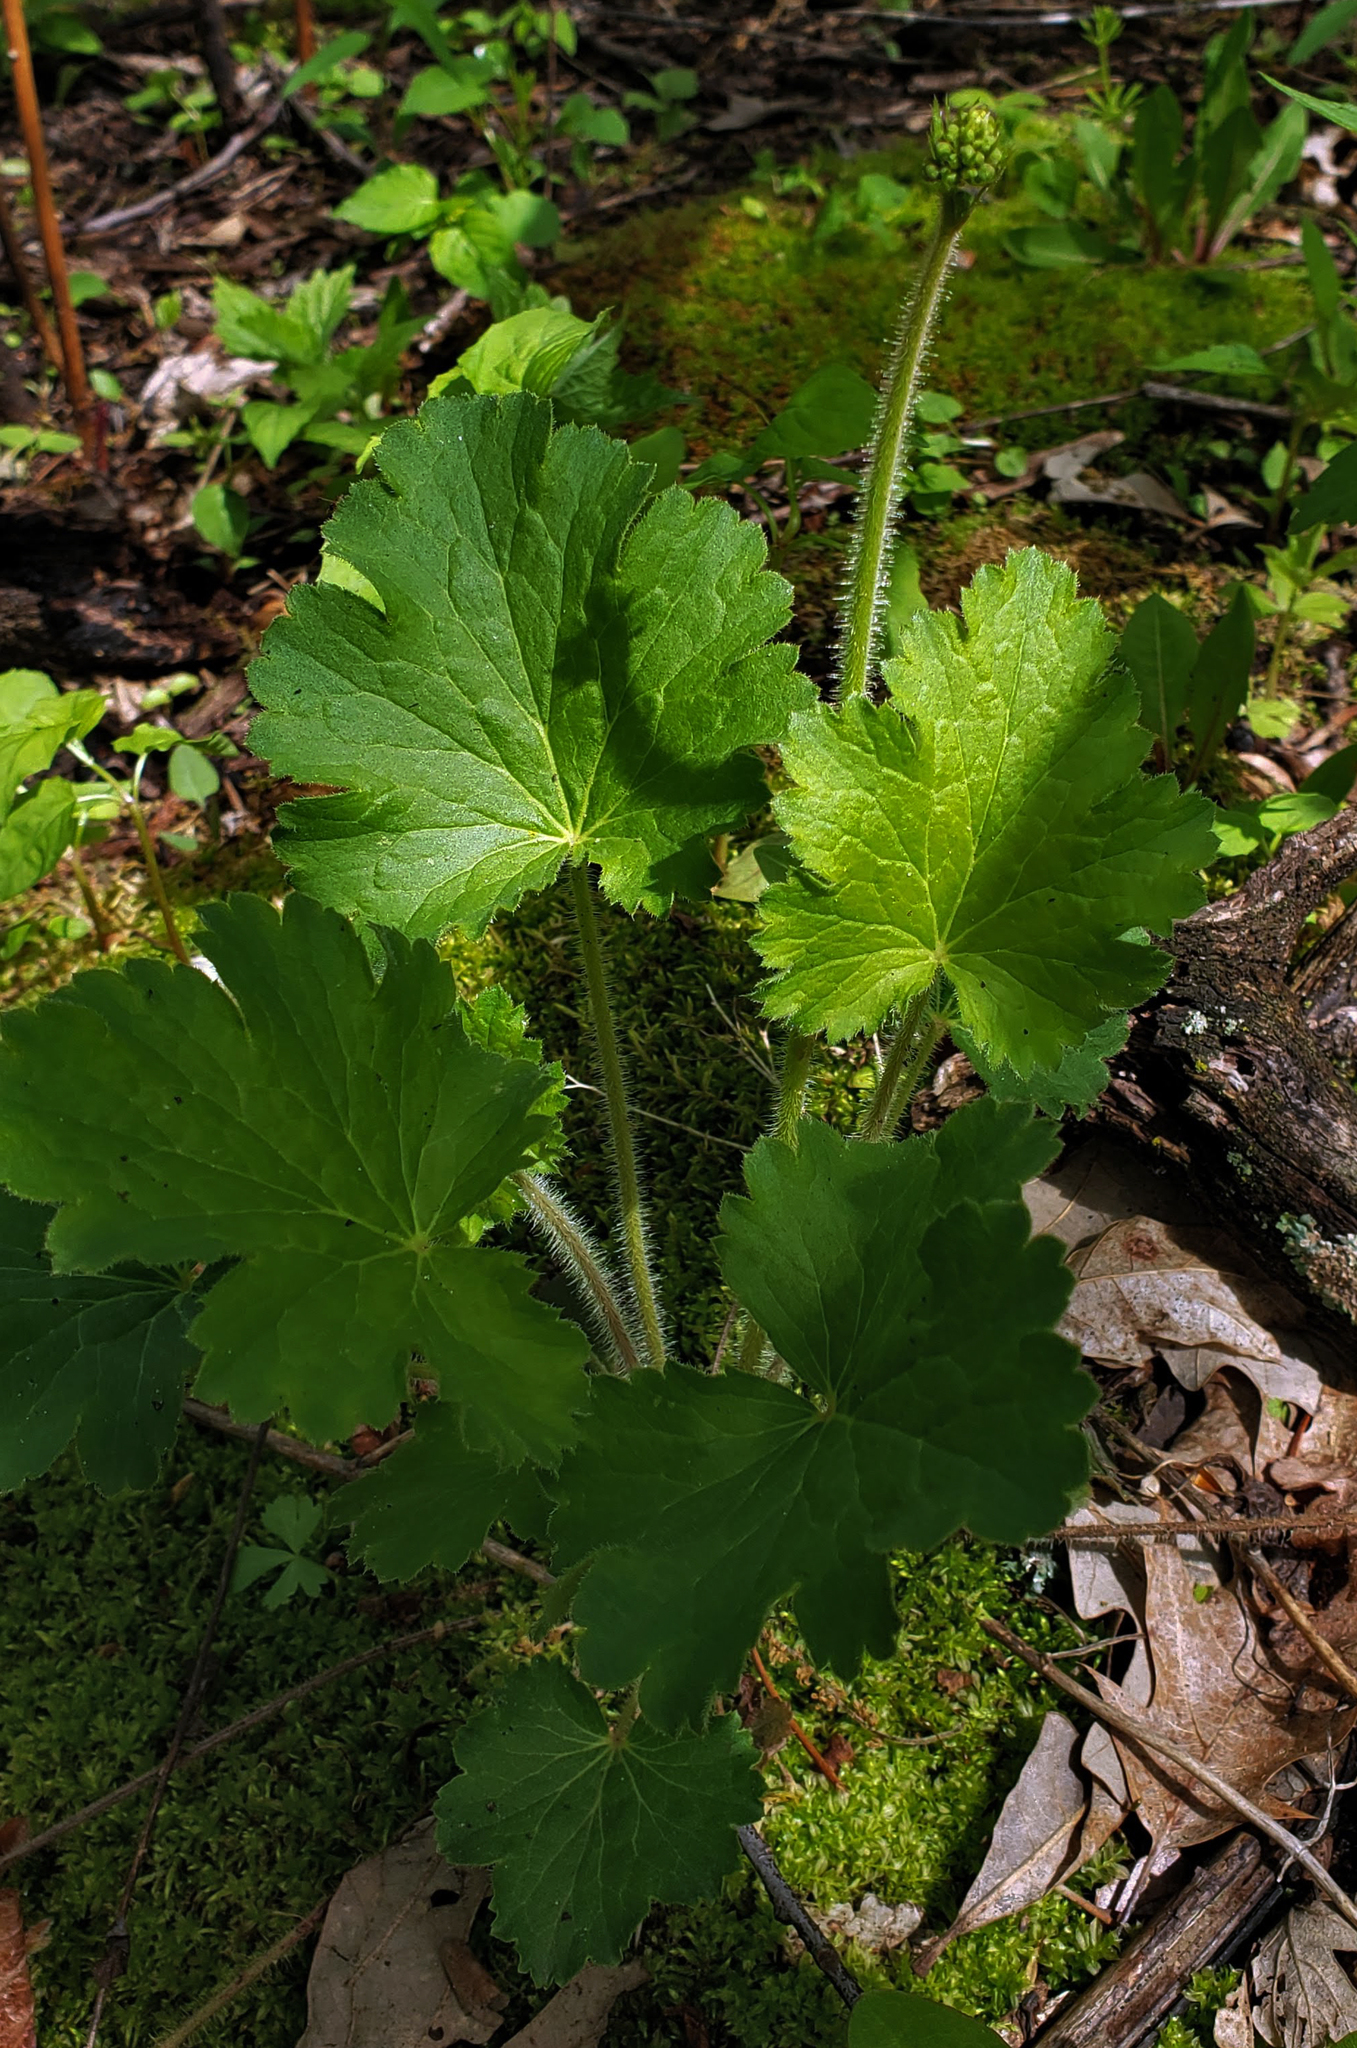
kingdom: Plantae
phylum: Tracheophyta
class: Magnoliopsida
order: Saxifragales
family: Saxifragaceae
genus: Heuchera
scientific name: Heuchera richardsonii
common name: Richardson's alumroot
